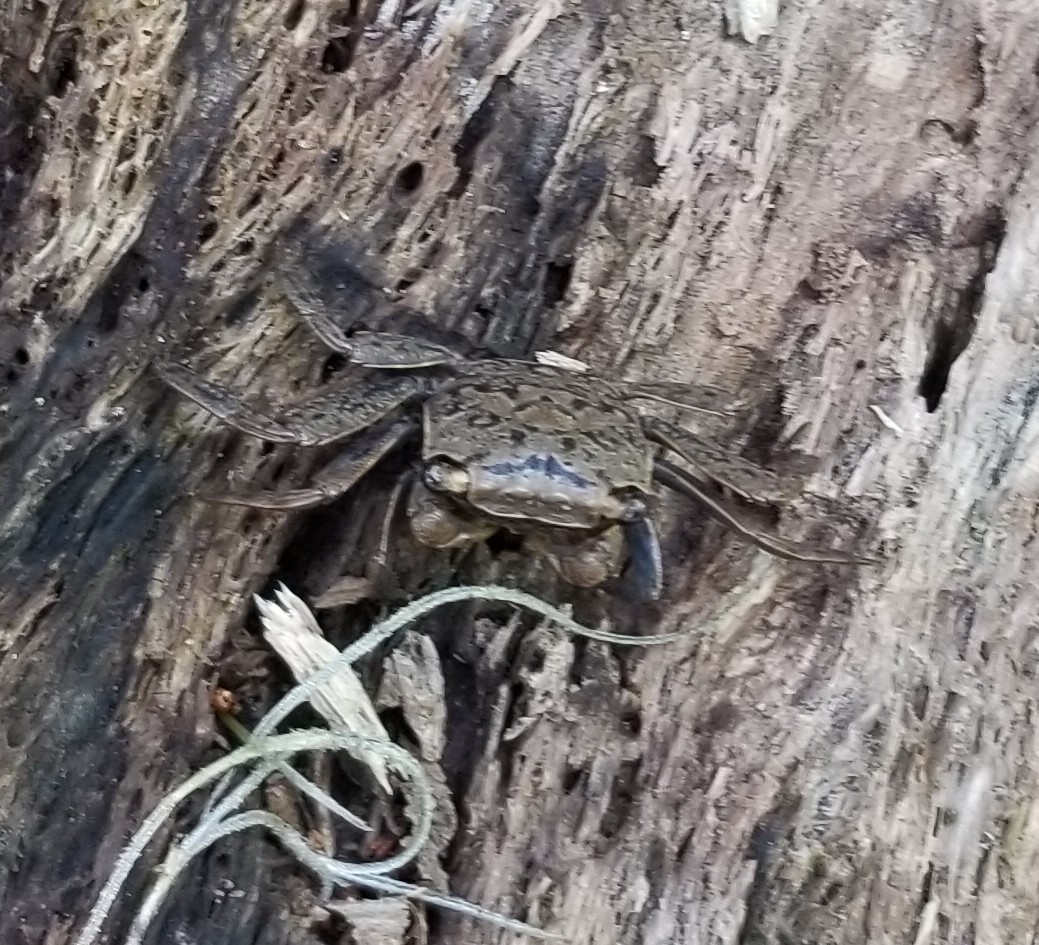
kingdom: Animalia
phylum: Arthropoda
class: Malacostraca
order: Decapoda
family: Sesarmidae
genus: Armases
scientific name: Armases cinereum
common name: Squareback marsh crab
